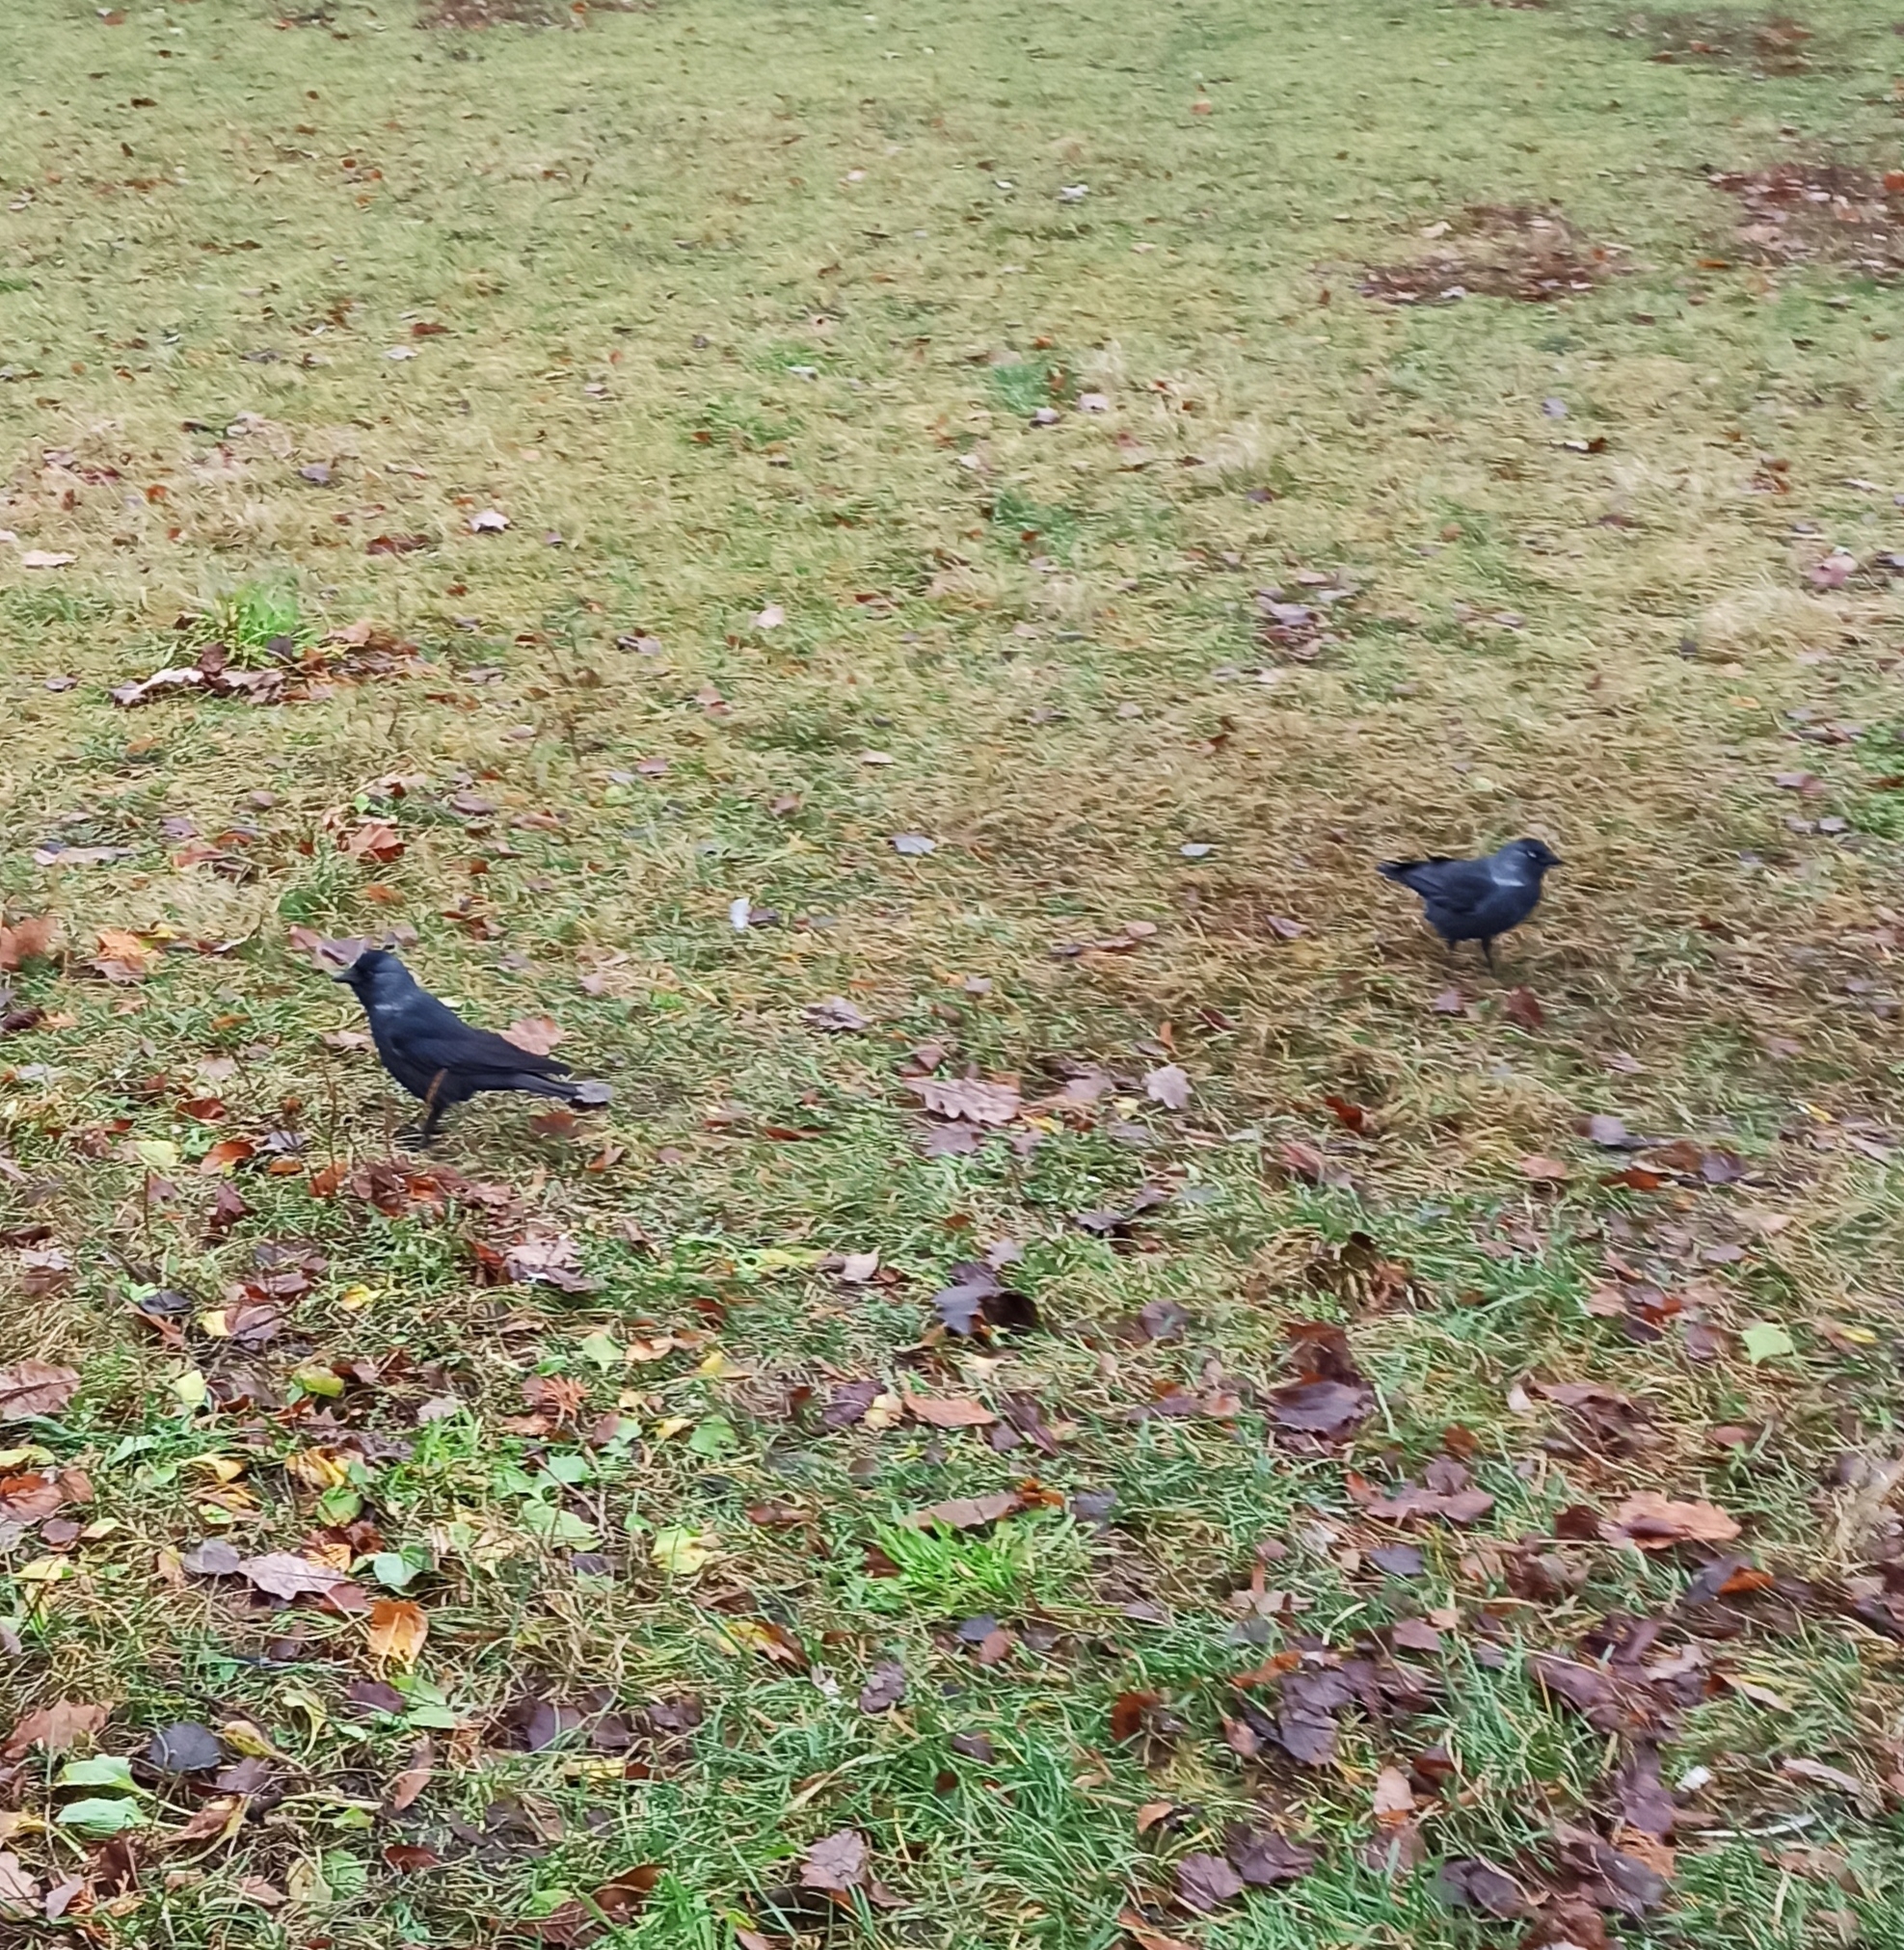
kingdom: Animalia
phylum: Chordata
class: Aves
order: Passeriformes
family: Corvidae
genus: Coloeus
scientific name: Coloeus monedula
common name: Western jackdaw
